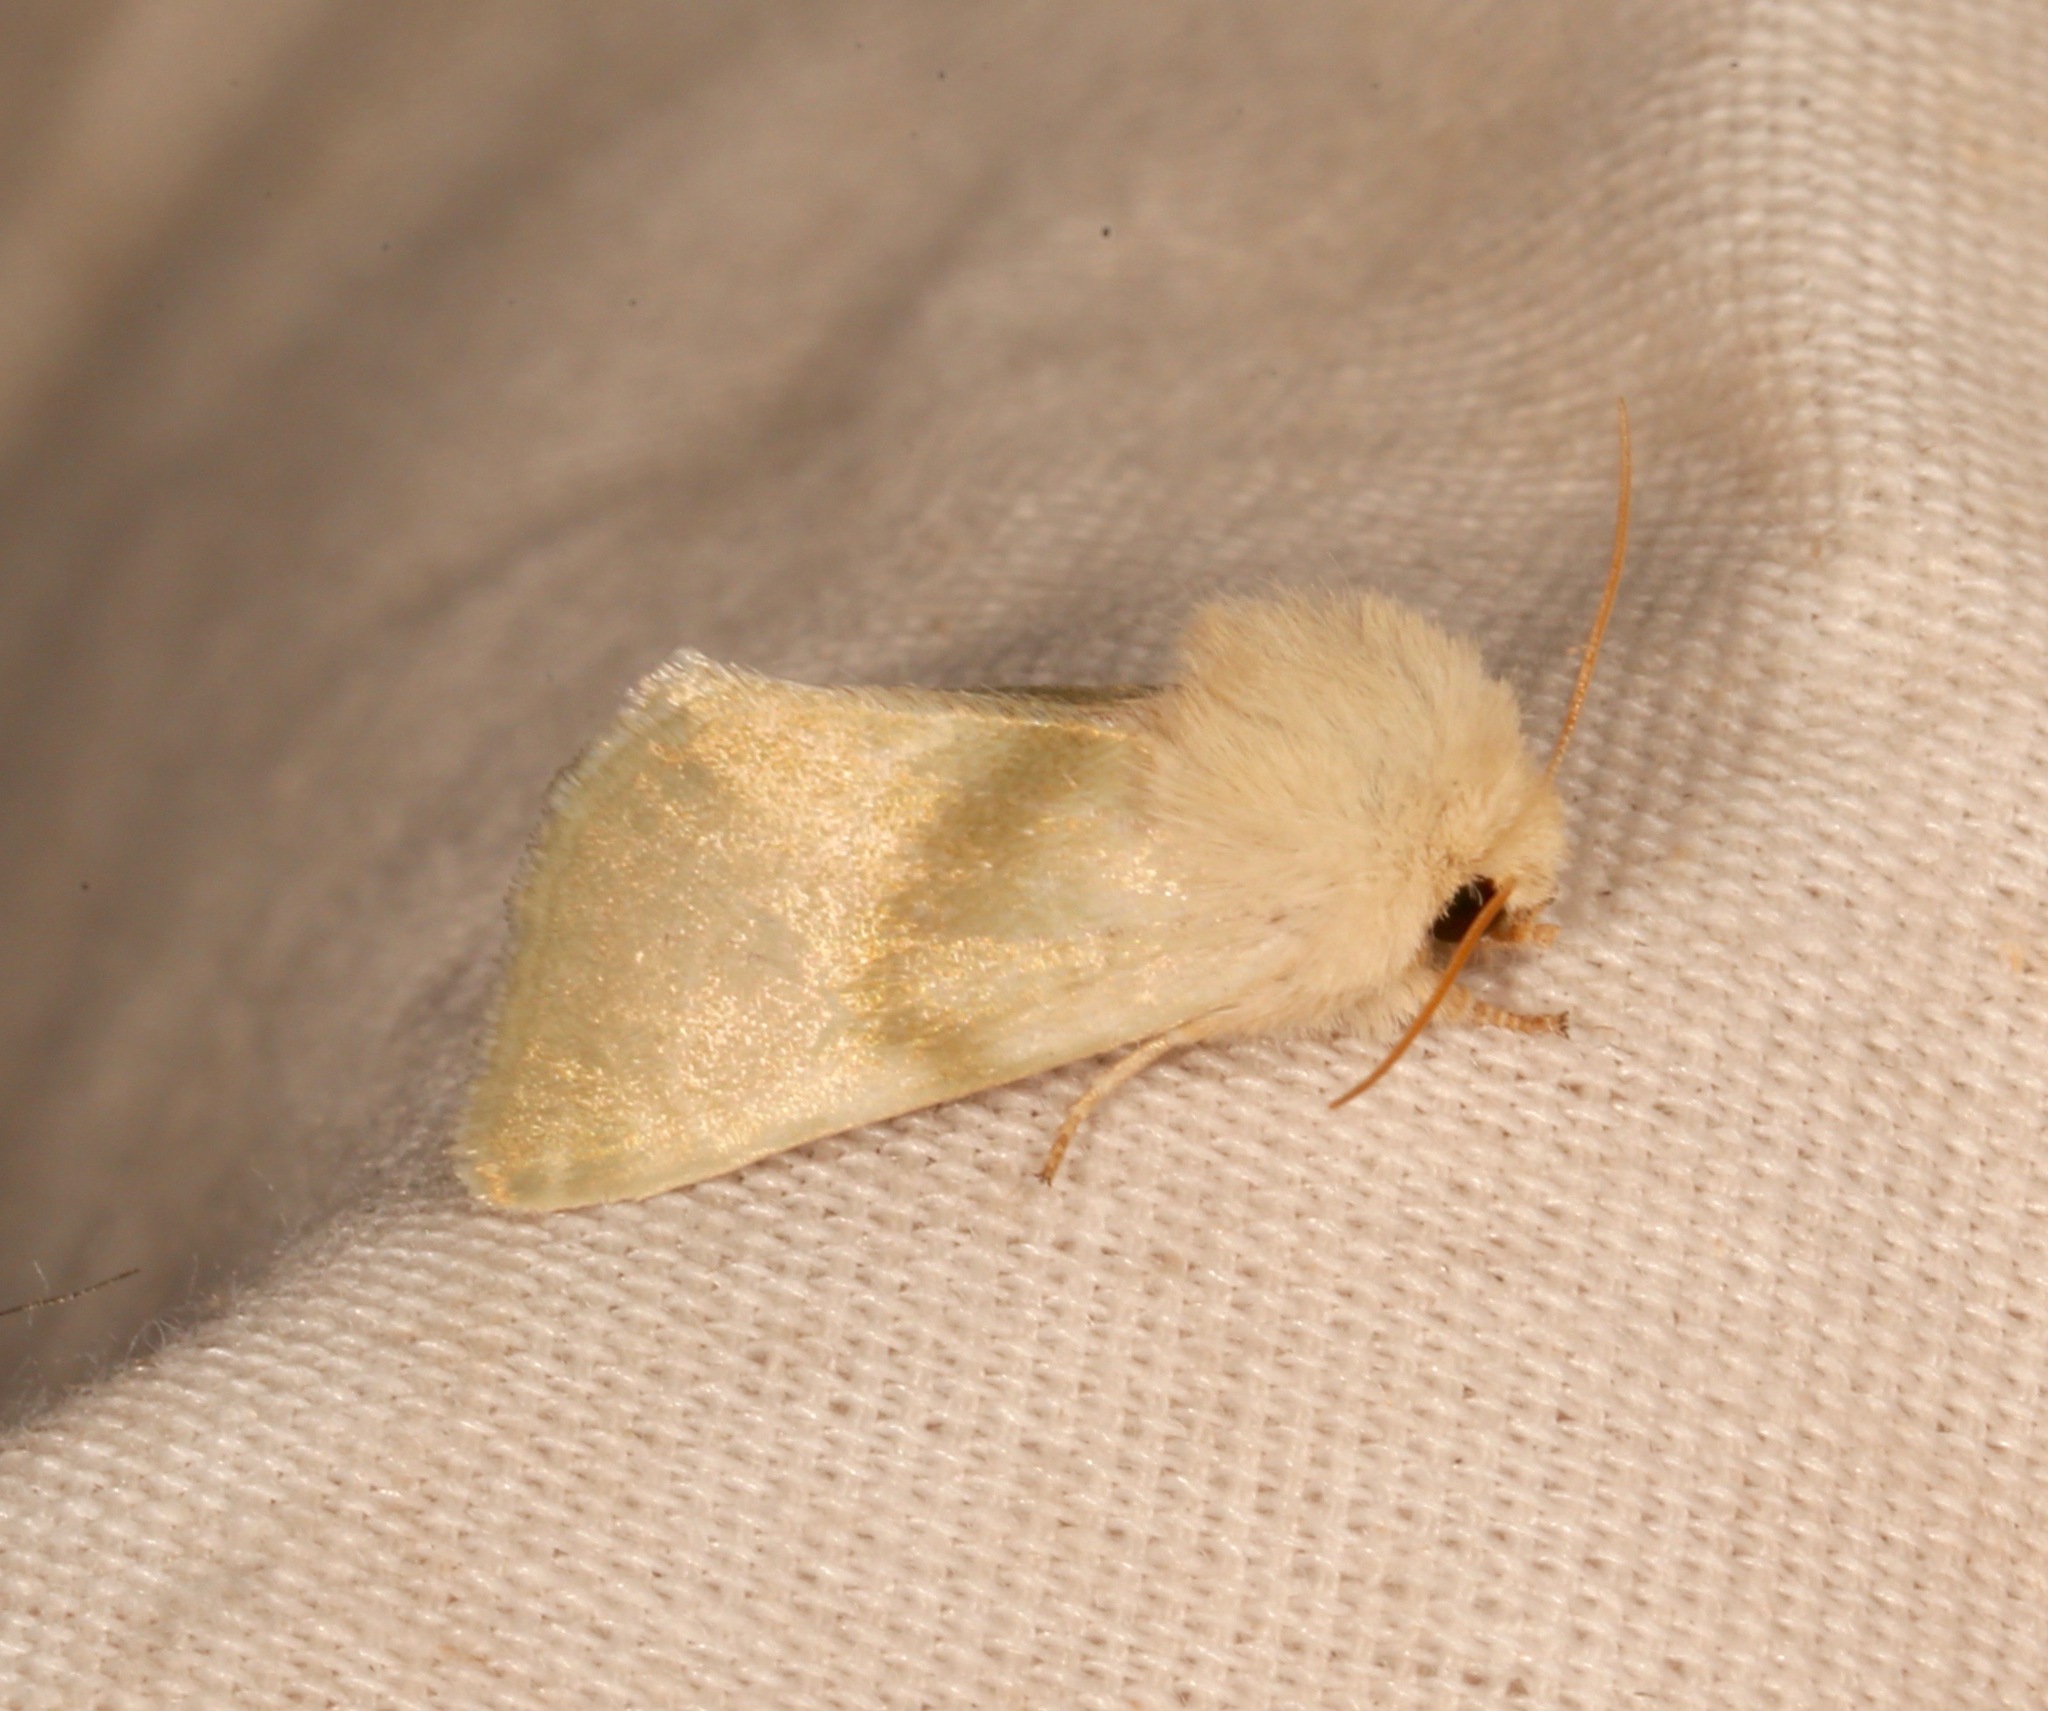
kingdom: Animalia
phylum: Arthropoda
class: Insecta
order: Lepidoptera
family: Noctuidae
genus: Nocloa
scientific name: Nocloa pallens
